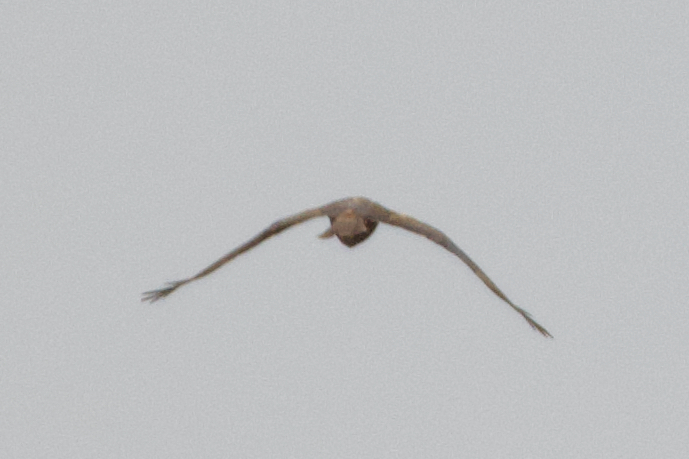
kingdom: Animalia
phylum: Chordata
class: Aves
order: Accipitriformes
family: Accipitridae
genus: Circus
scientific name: Circus aeruginosus
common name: Western marsh harrier
